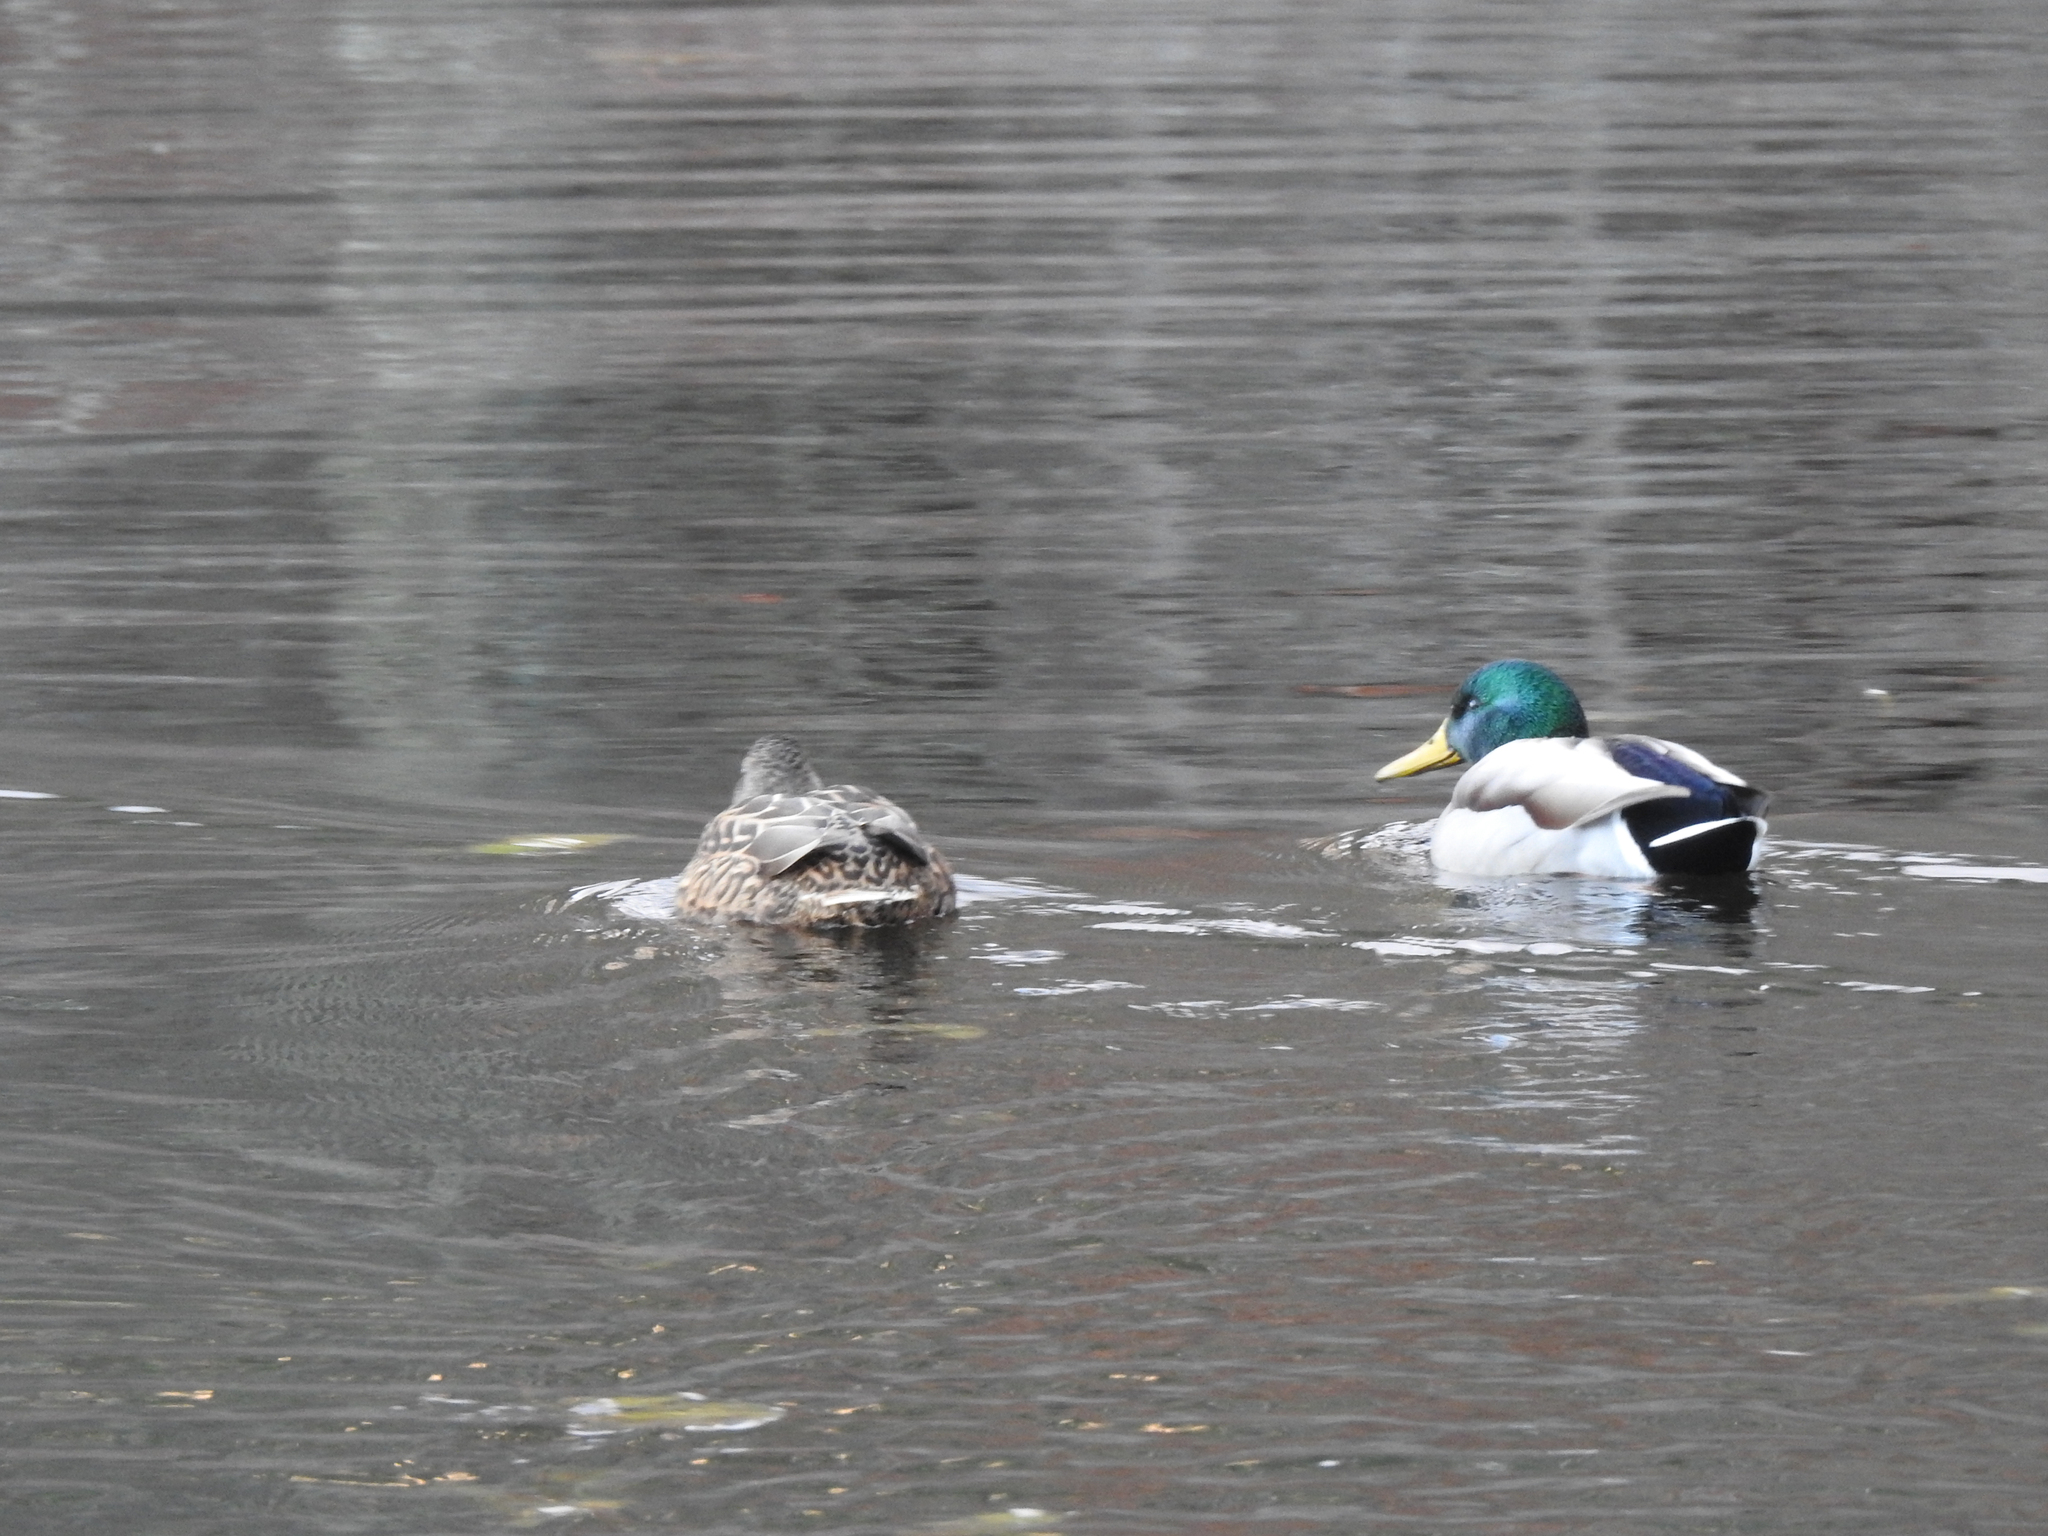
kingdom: Animalia
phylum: Chordata
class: Aves
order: Anseriformes
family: Anatidae
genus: Anas
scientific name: Anas platyrhynchos
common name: Mallard
